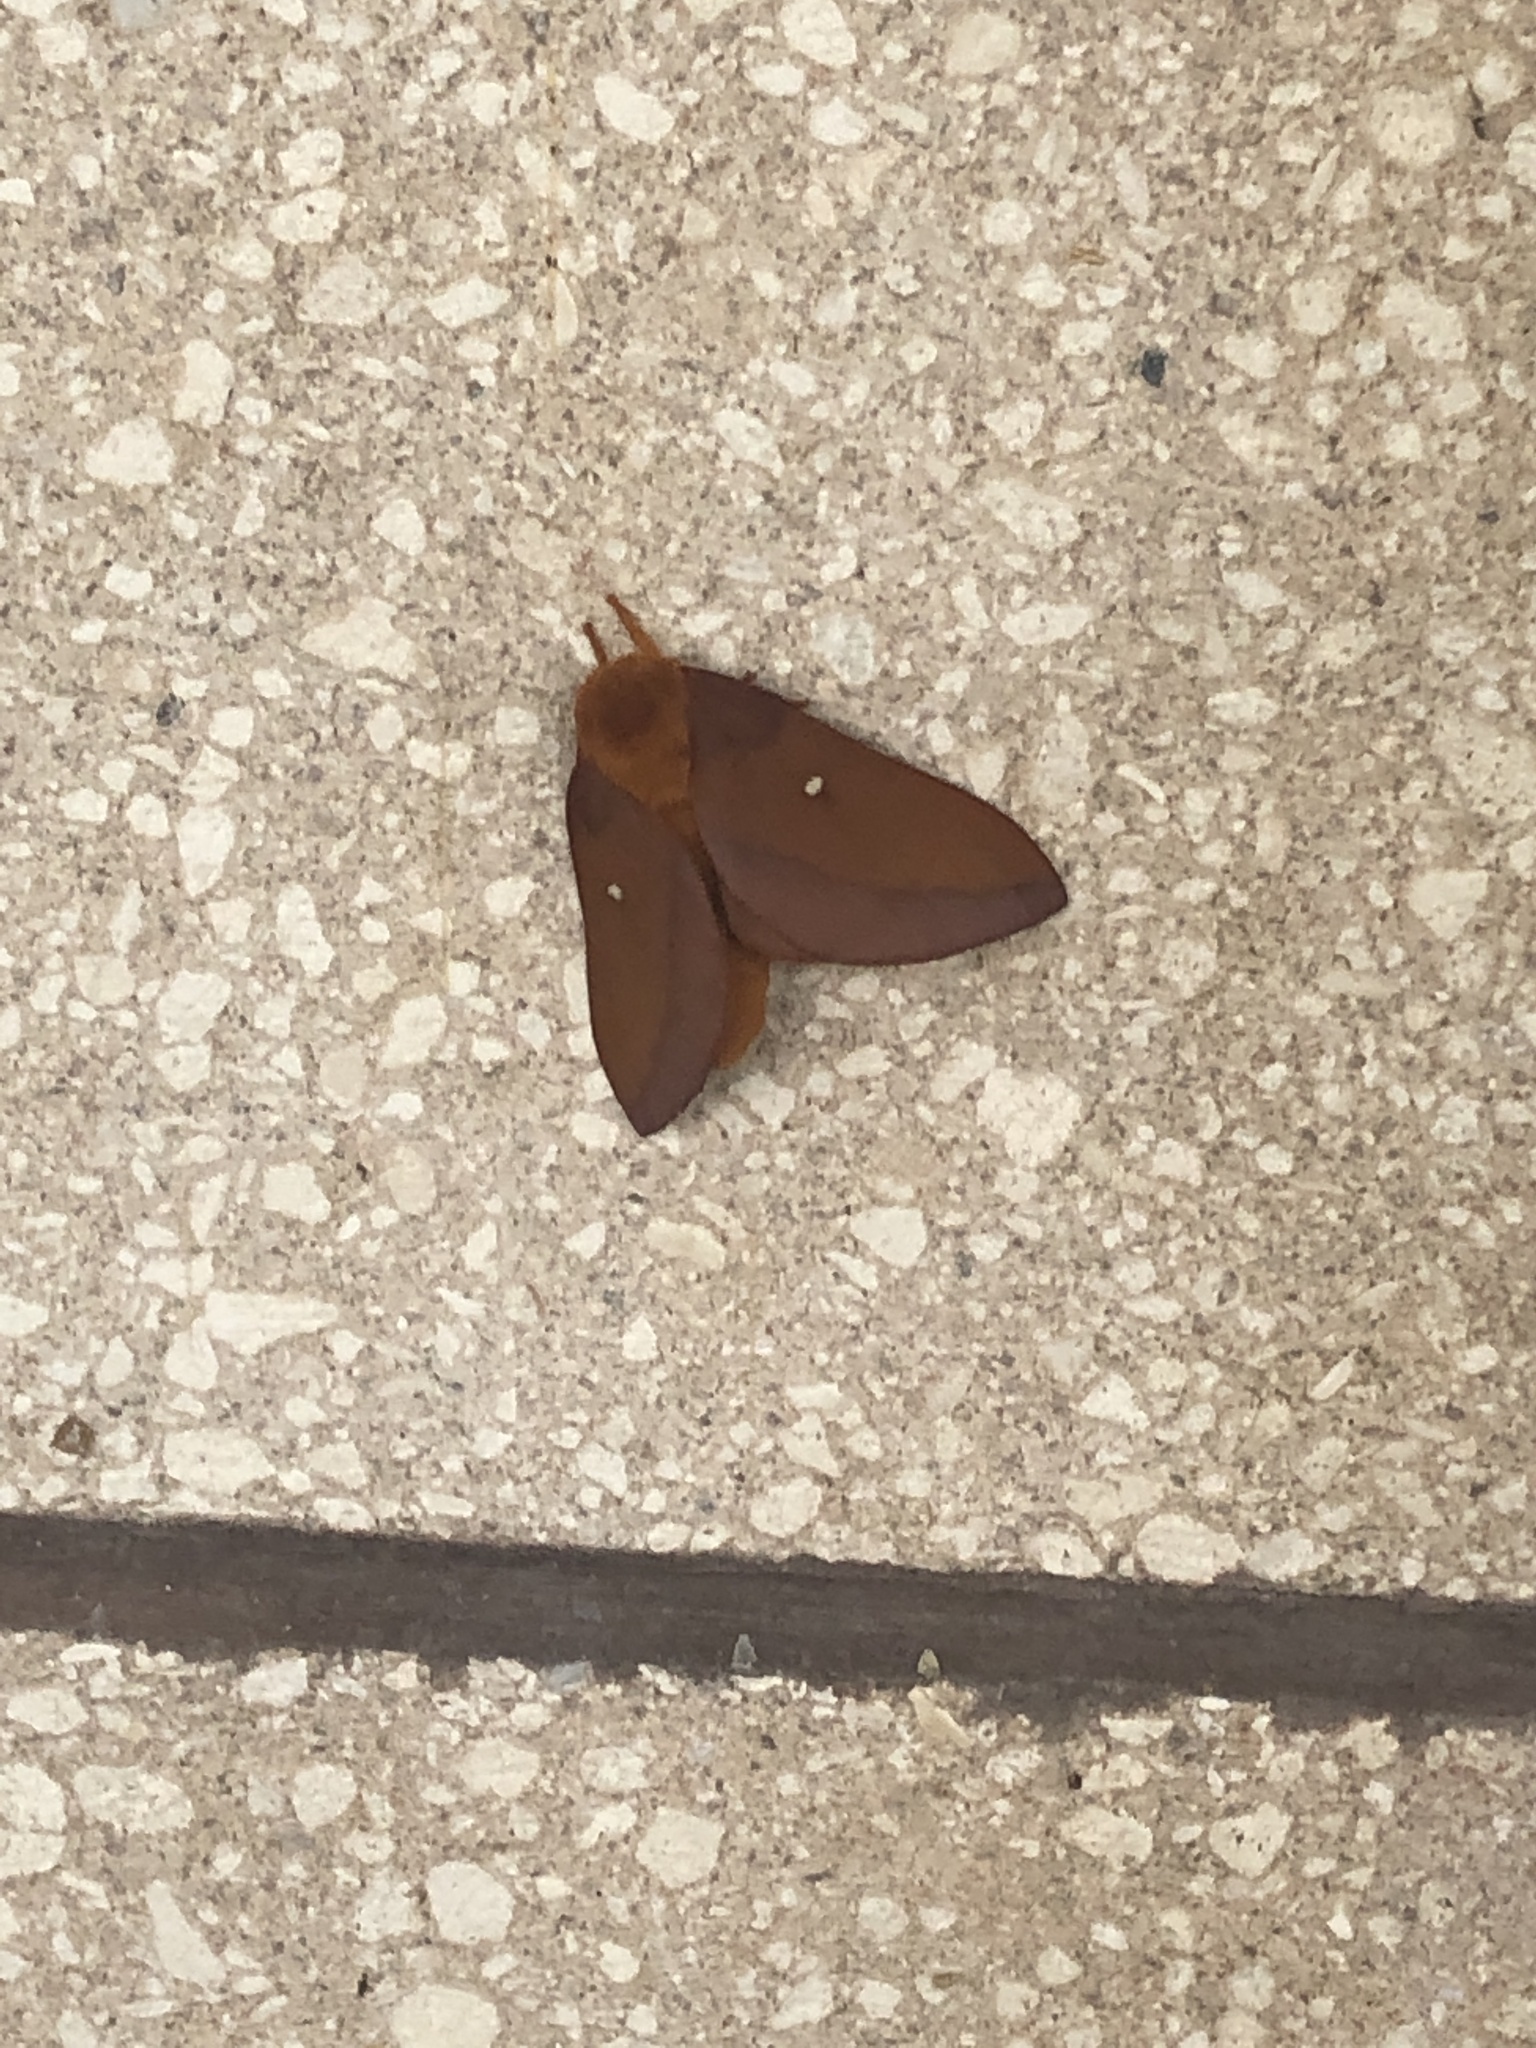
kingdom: Animalia
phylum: Arthropoda
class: Insecta
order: Lepidoptera
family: Saturniidae
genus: Anisota
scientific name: Anisota virginiensis
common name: Pink striped oakworm moth
